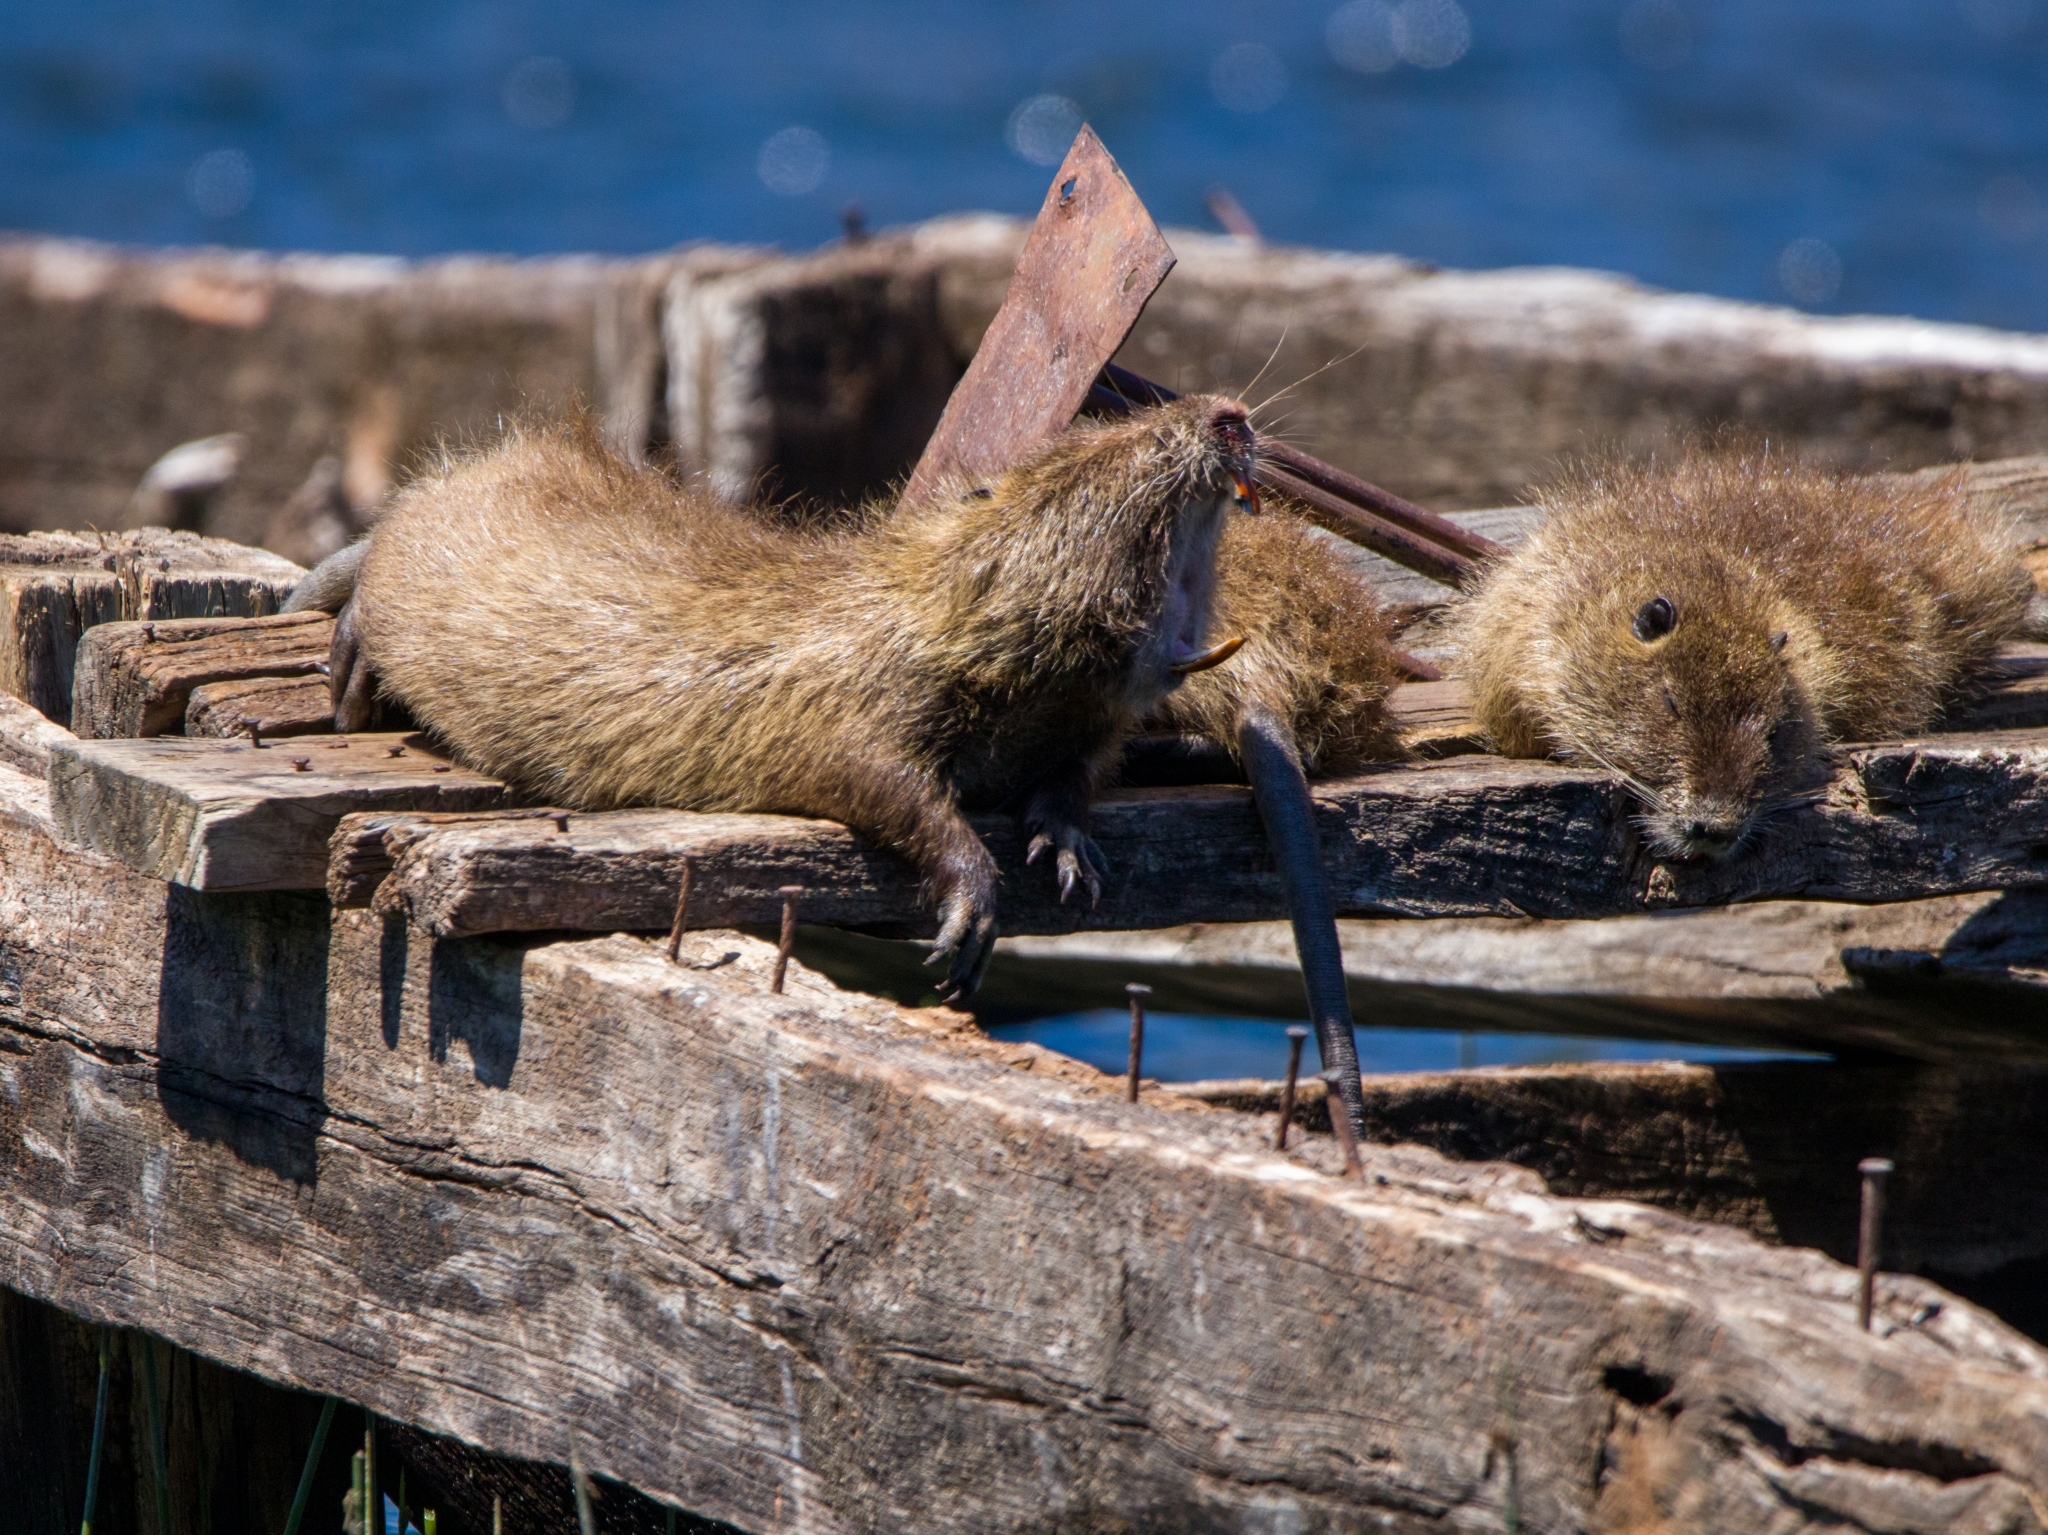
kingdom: Animalia
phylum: Chordata
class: Mammalia
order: Rodentia
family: Myocastoridae
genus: Myocastor
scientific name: Myocastor coypus
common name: Coypu
